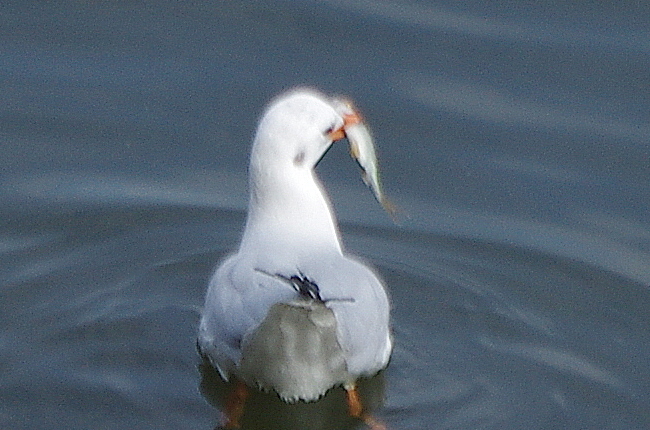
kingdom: Animalia
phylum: Chordata
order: Cypriniformes
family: Cyprinidae
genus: Rutilus
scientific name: Rutilus rutilus
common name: Roach
